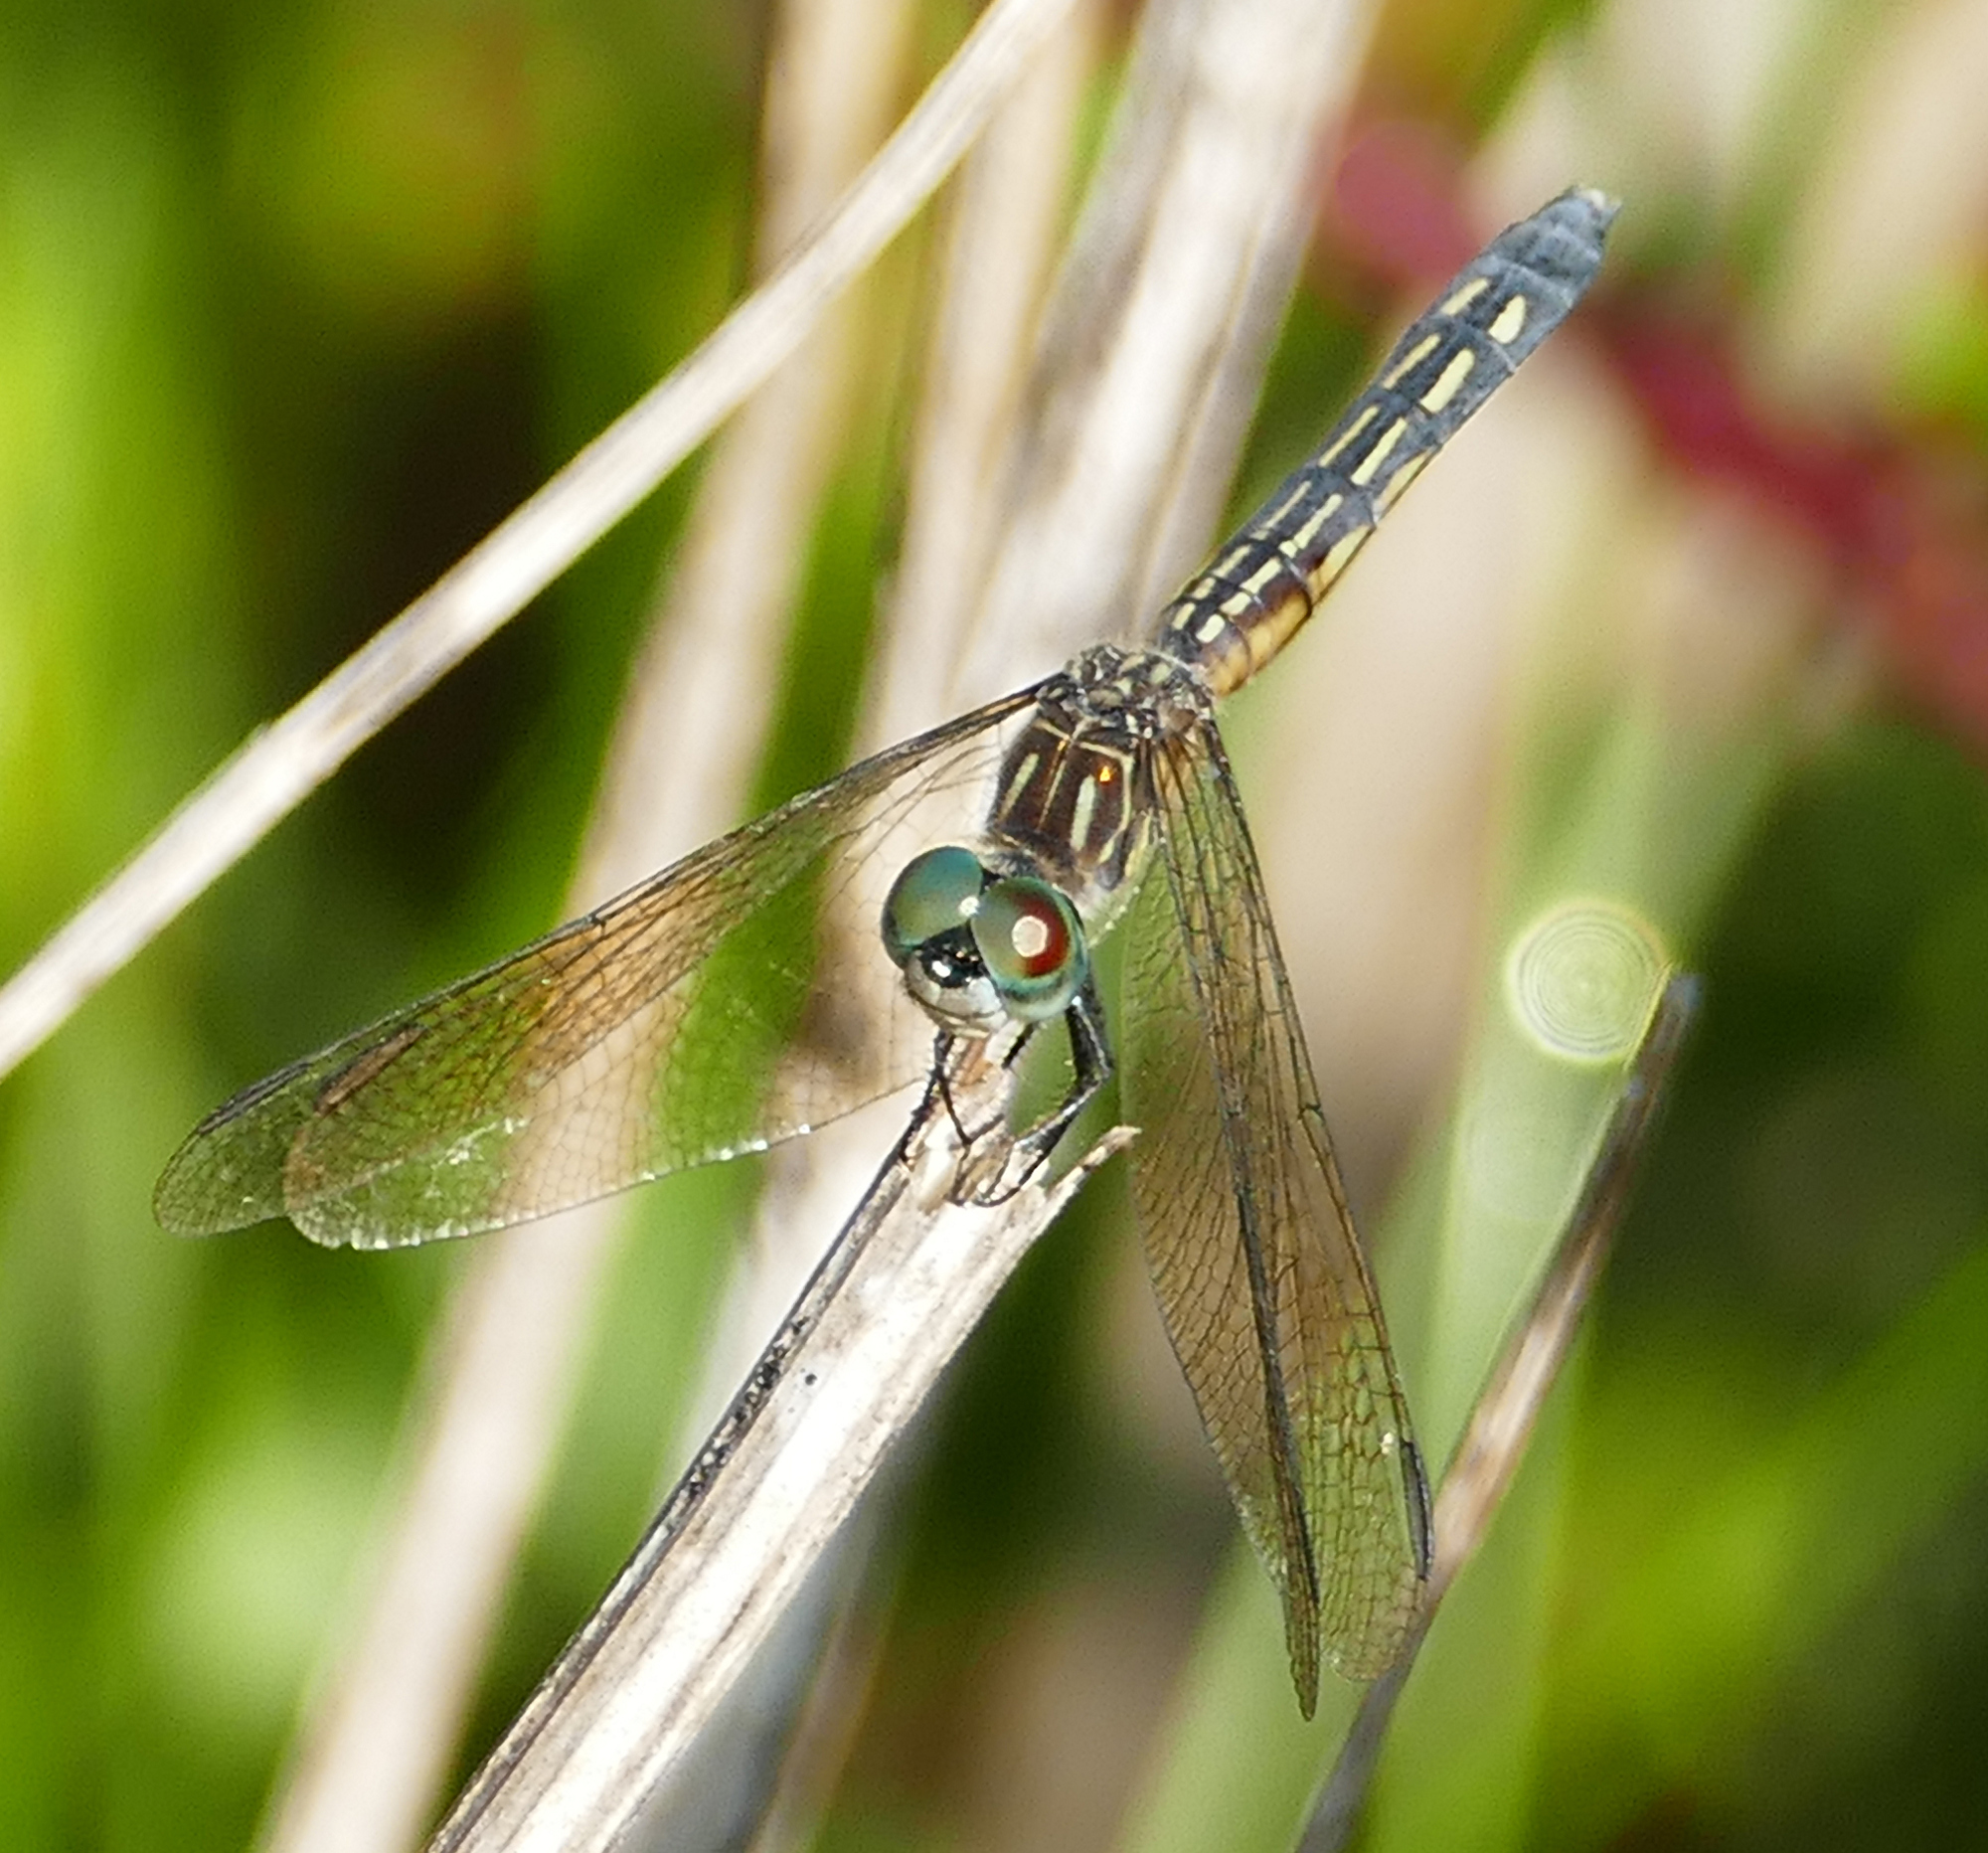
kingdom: Animalia
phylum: Arthropoda
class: Insecta
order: Odonata
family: Libellulidae
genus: Pachydiplax
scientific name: Pachydiplax longipennis
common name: Blue dasher
